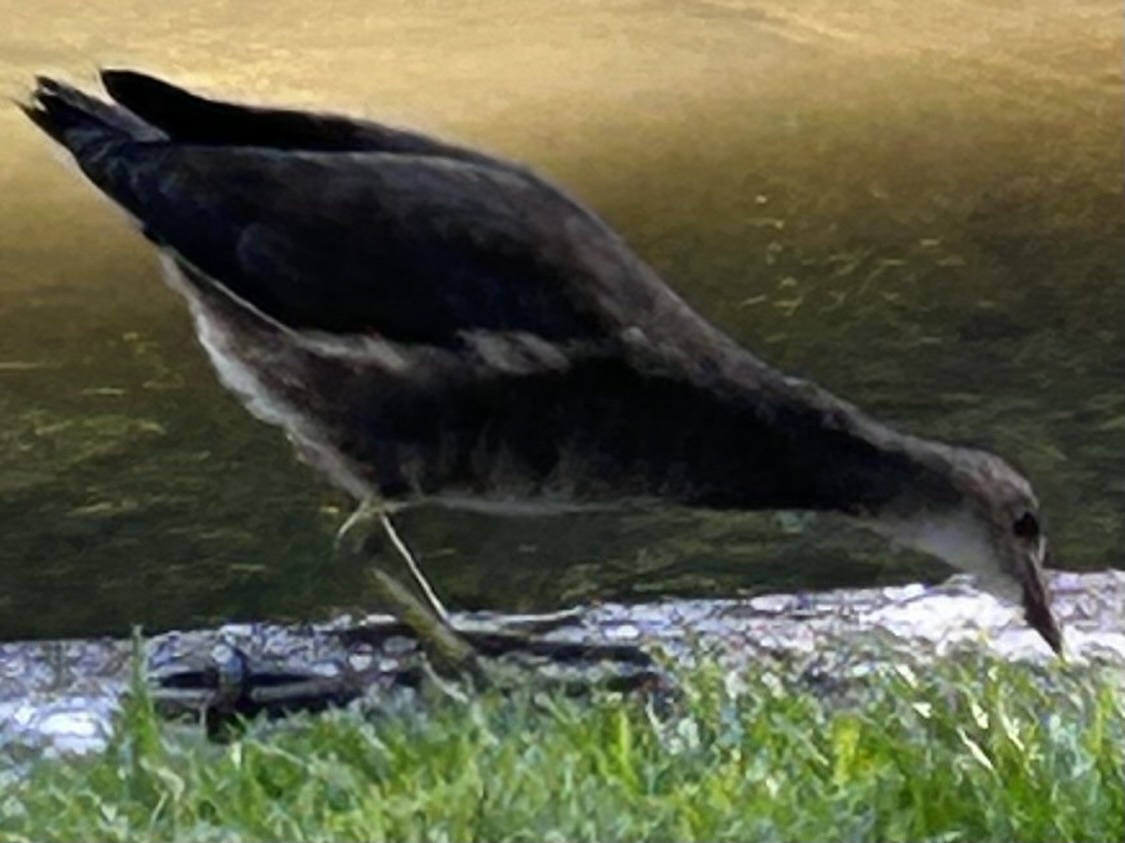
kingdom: Animalia
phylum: Chordata
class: Aves
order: Gruiformes
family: Rallidae
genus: Gallinula
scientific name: Gallinula chloropus
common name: Common moorhen
